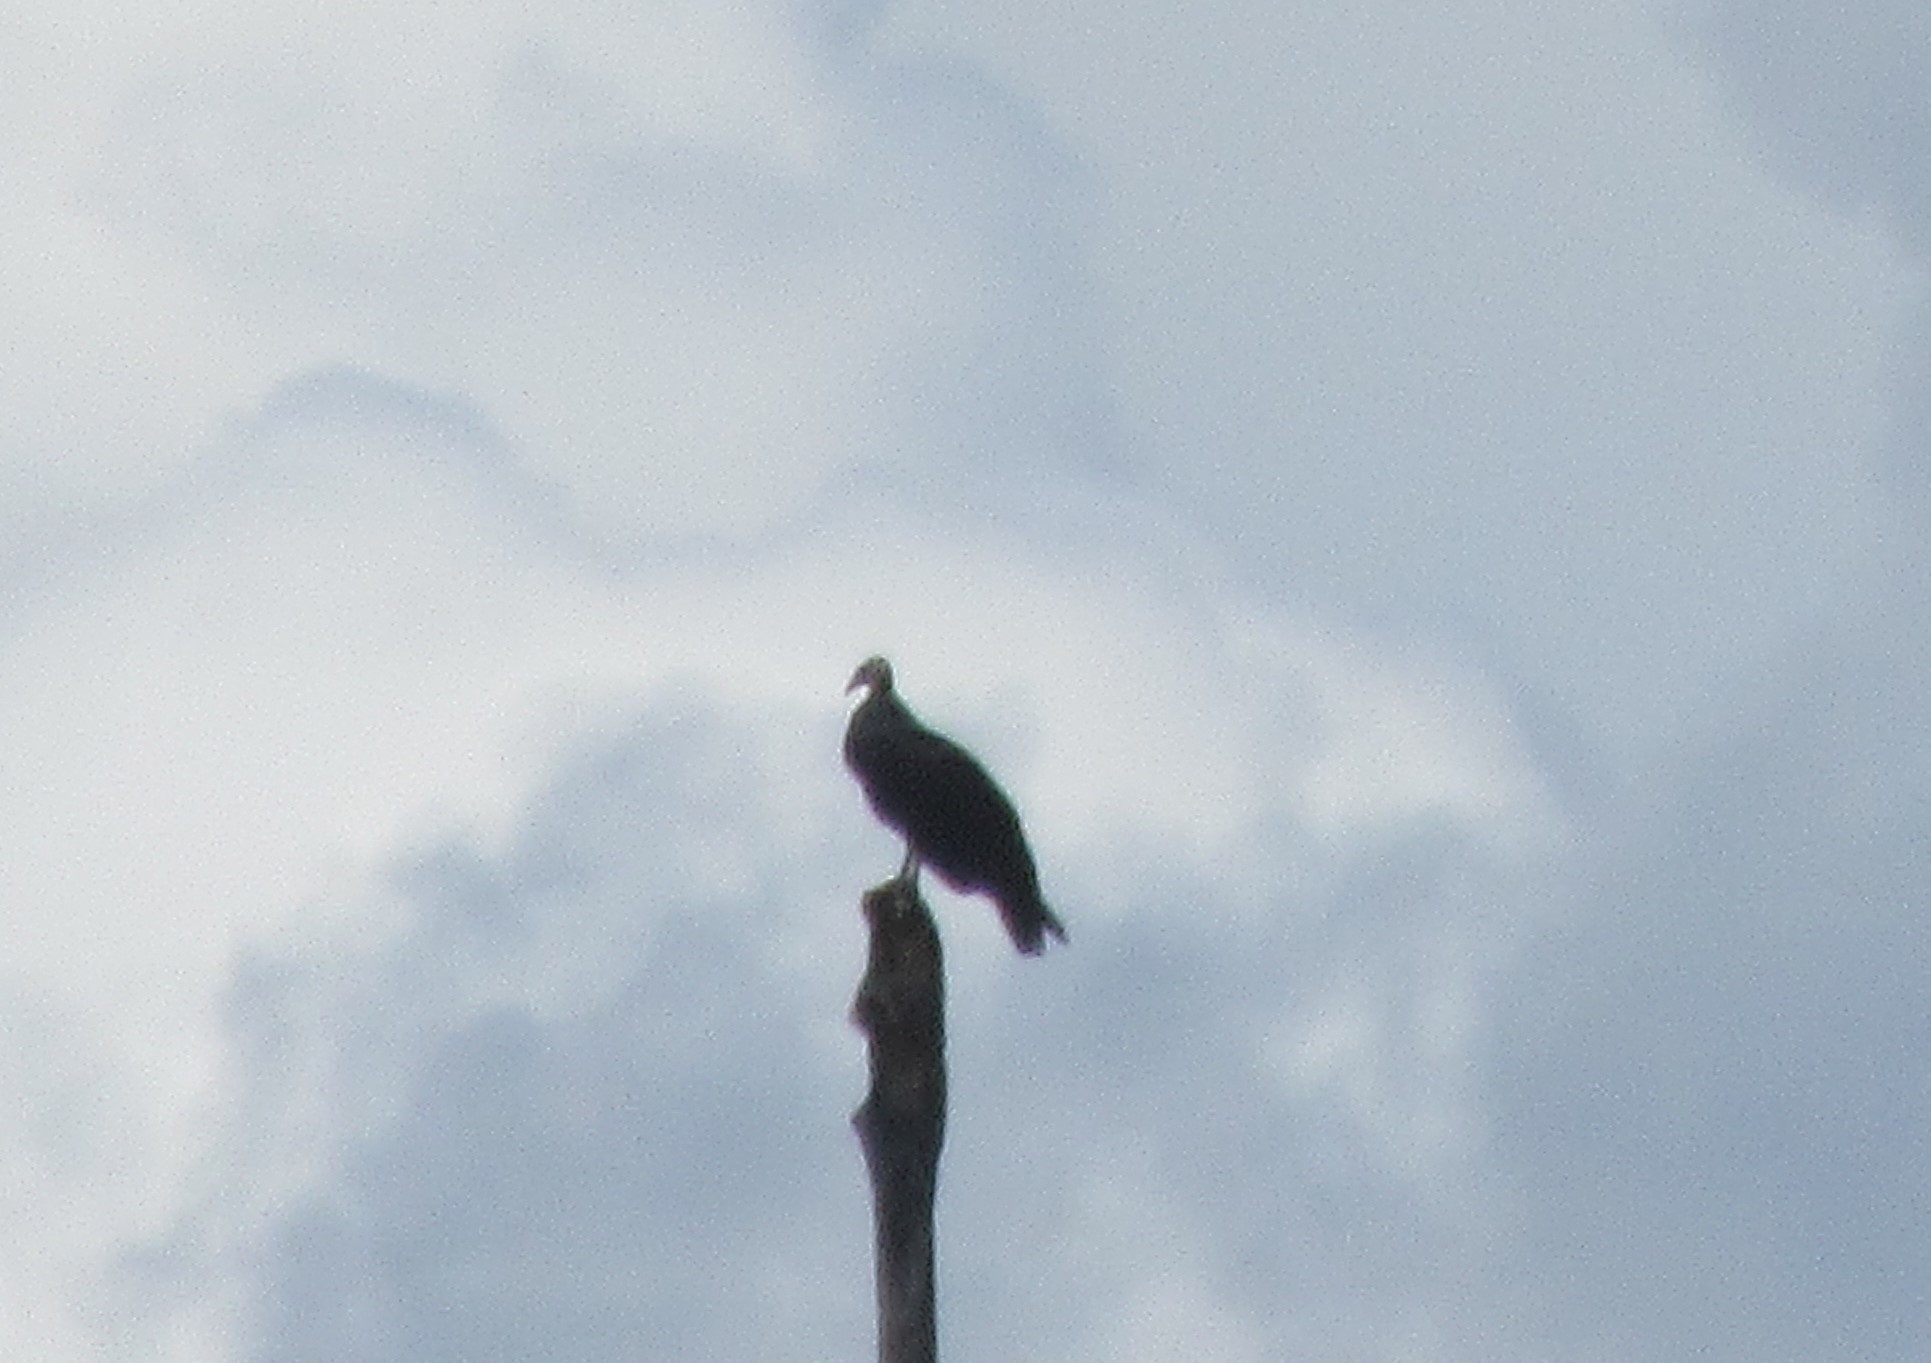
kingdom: Animalia
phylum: Chordata
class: Aves
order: Accipitriformes
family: Cathartidae
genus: Coragyps
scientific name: Coragyps atratus
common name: Black vulture
